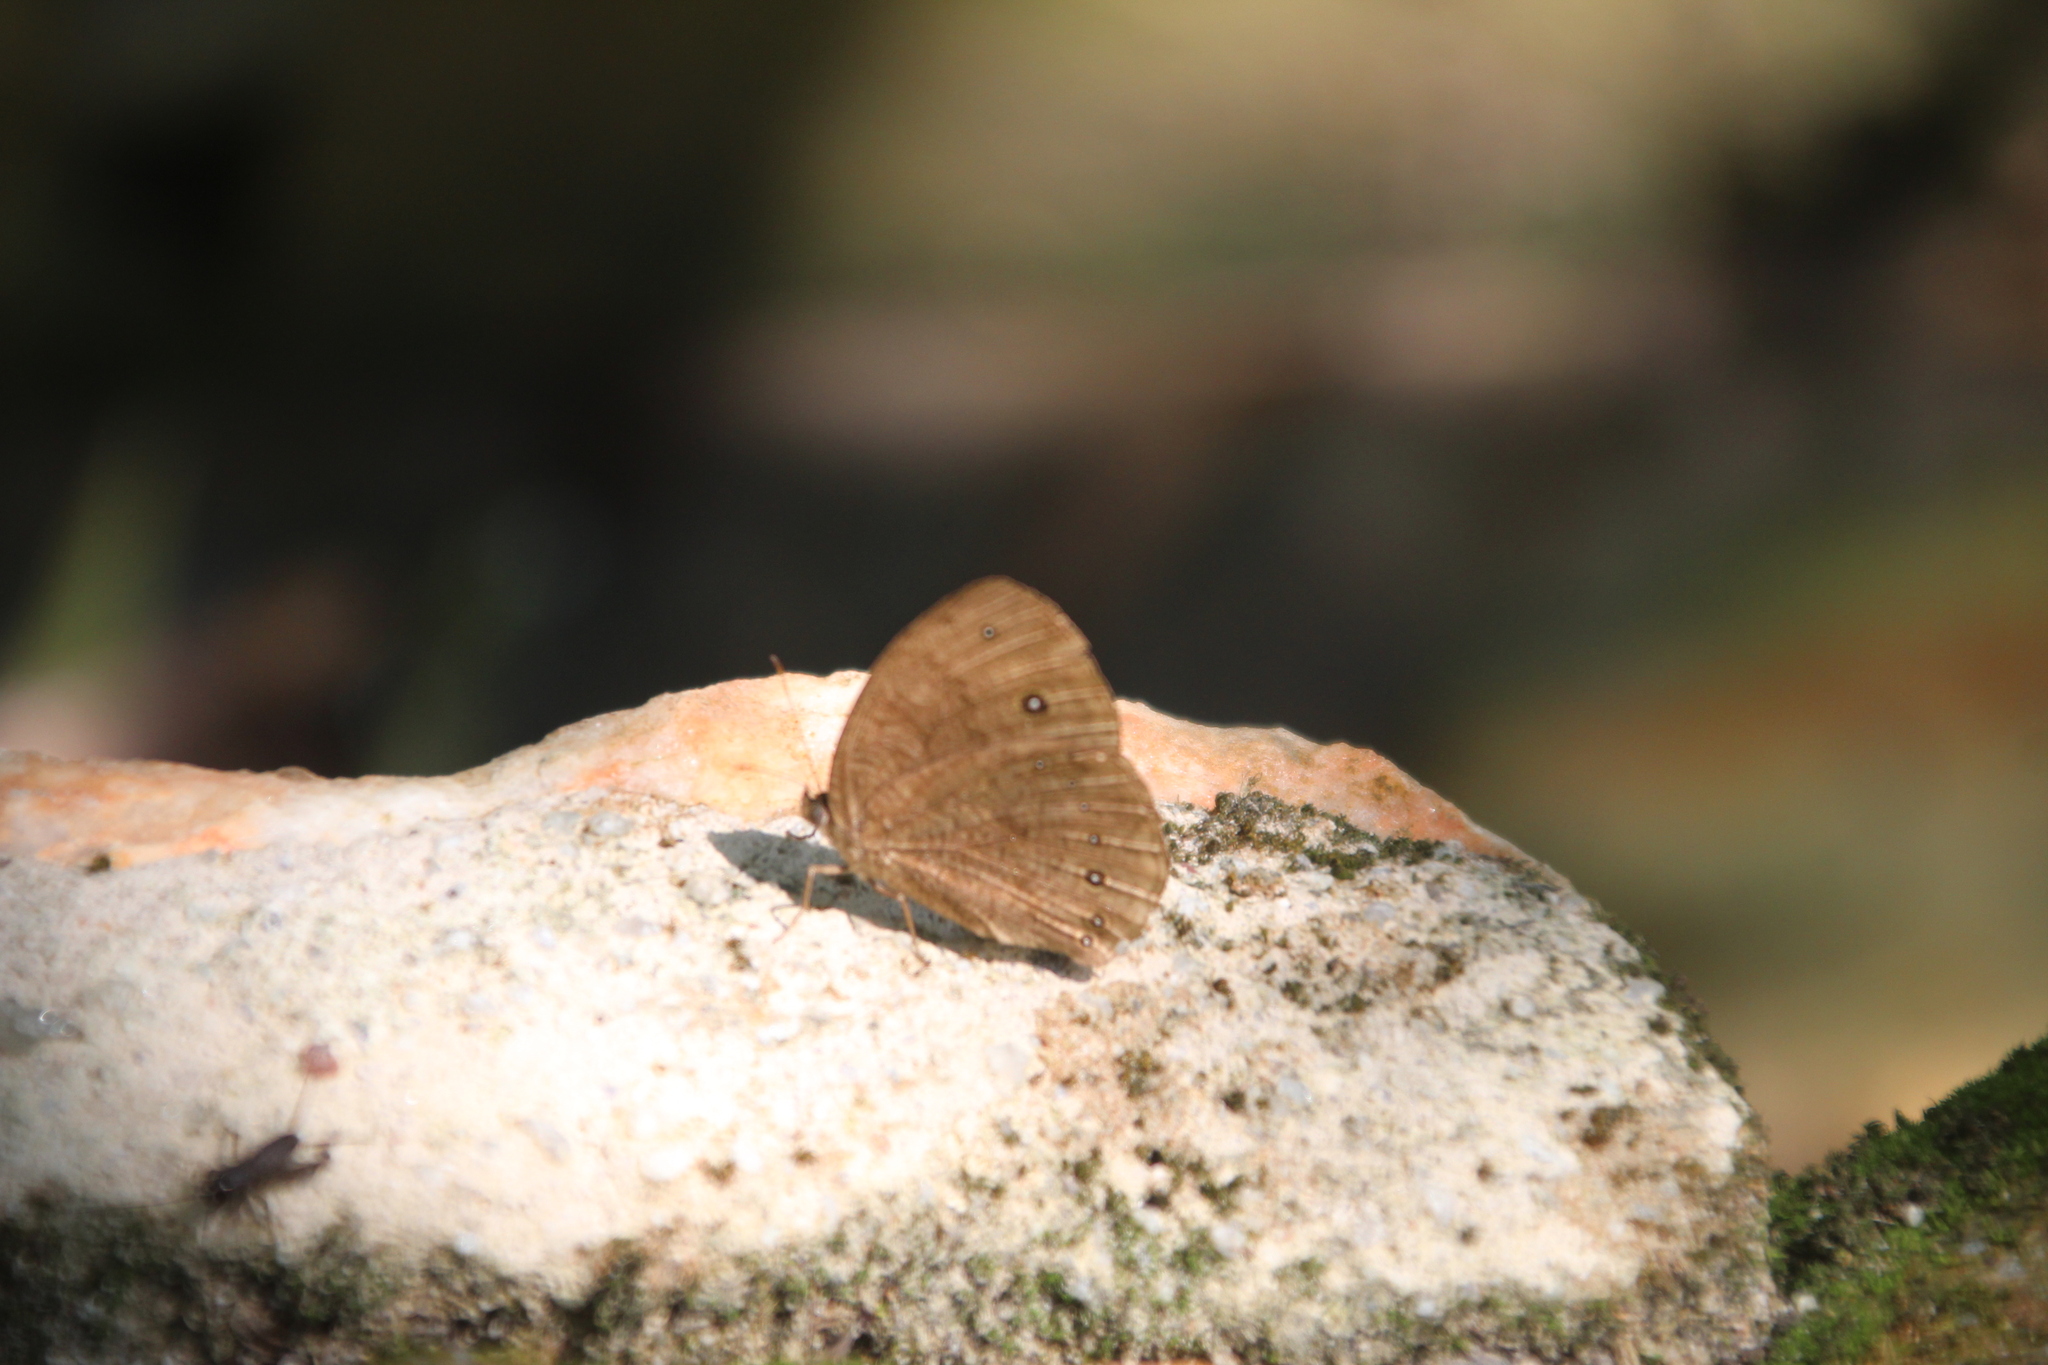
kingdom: Animalia
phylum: Arthropoda
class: Insecta
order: Lepidoptera
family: Nymphalidae
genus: Mycalesis
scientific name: Mycalesis vulgaris
